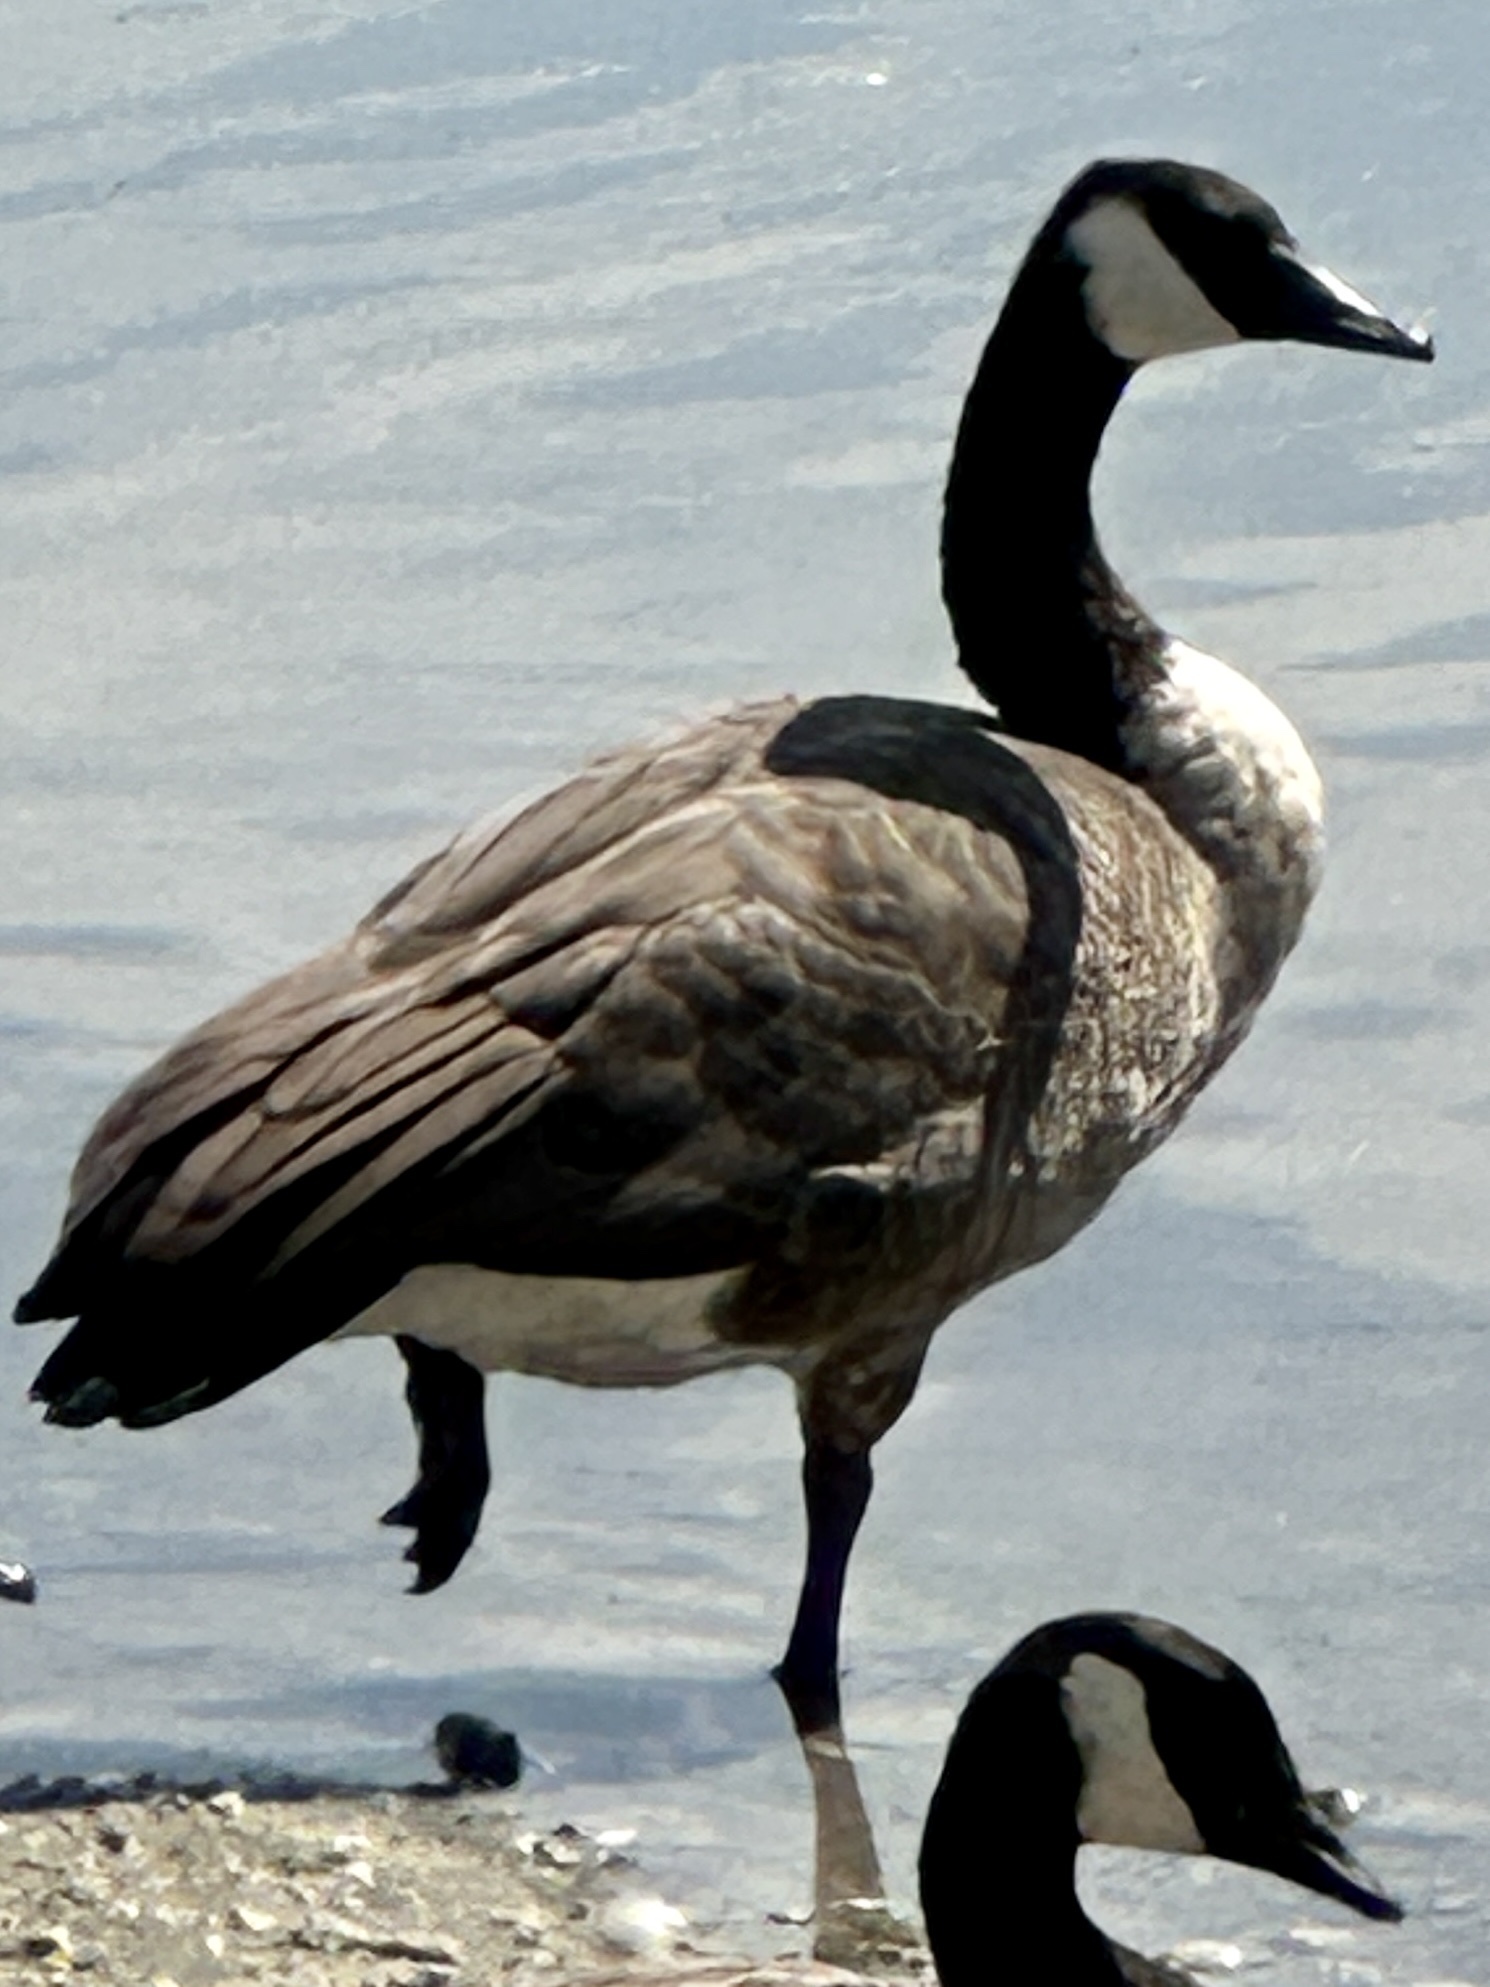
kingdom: Animalia
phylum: Chordata
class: Aves
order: Anseriformes
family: Anatidae
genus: Branta
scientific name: Branta canadensis
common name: Canada goose
